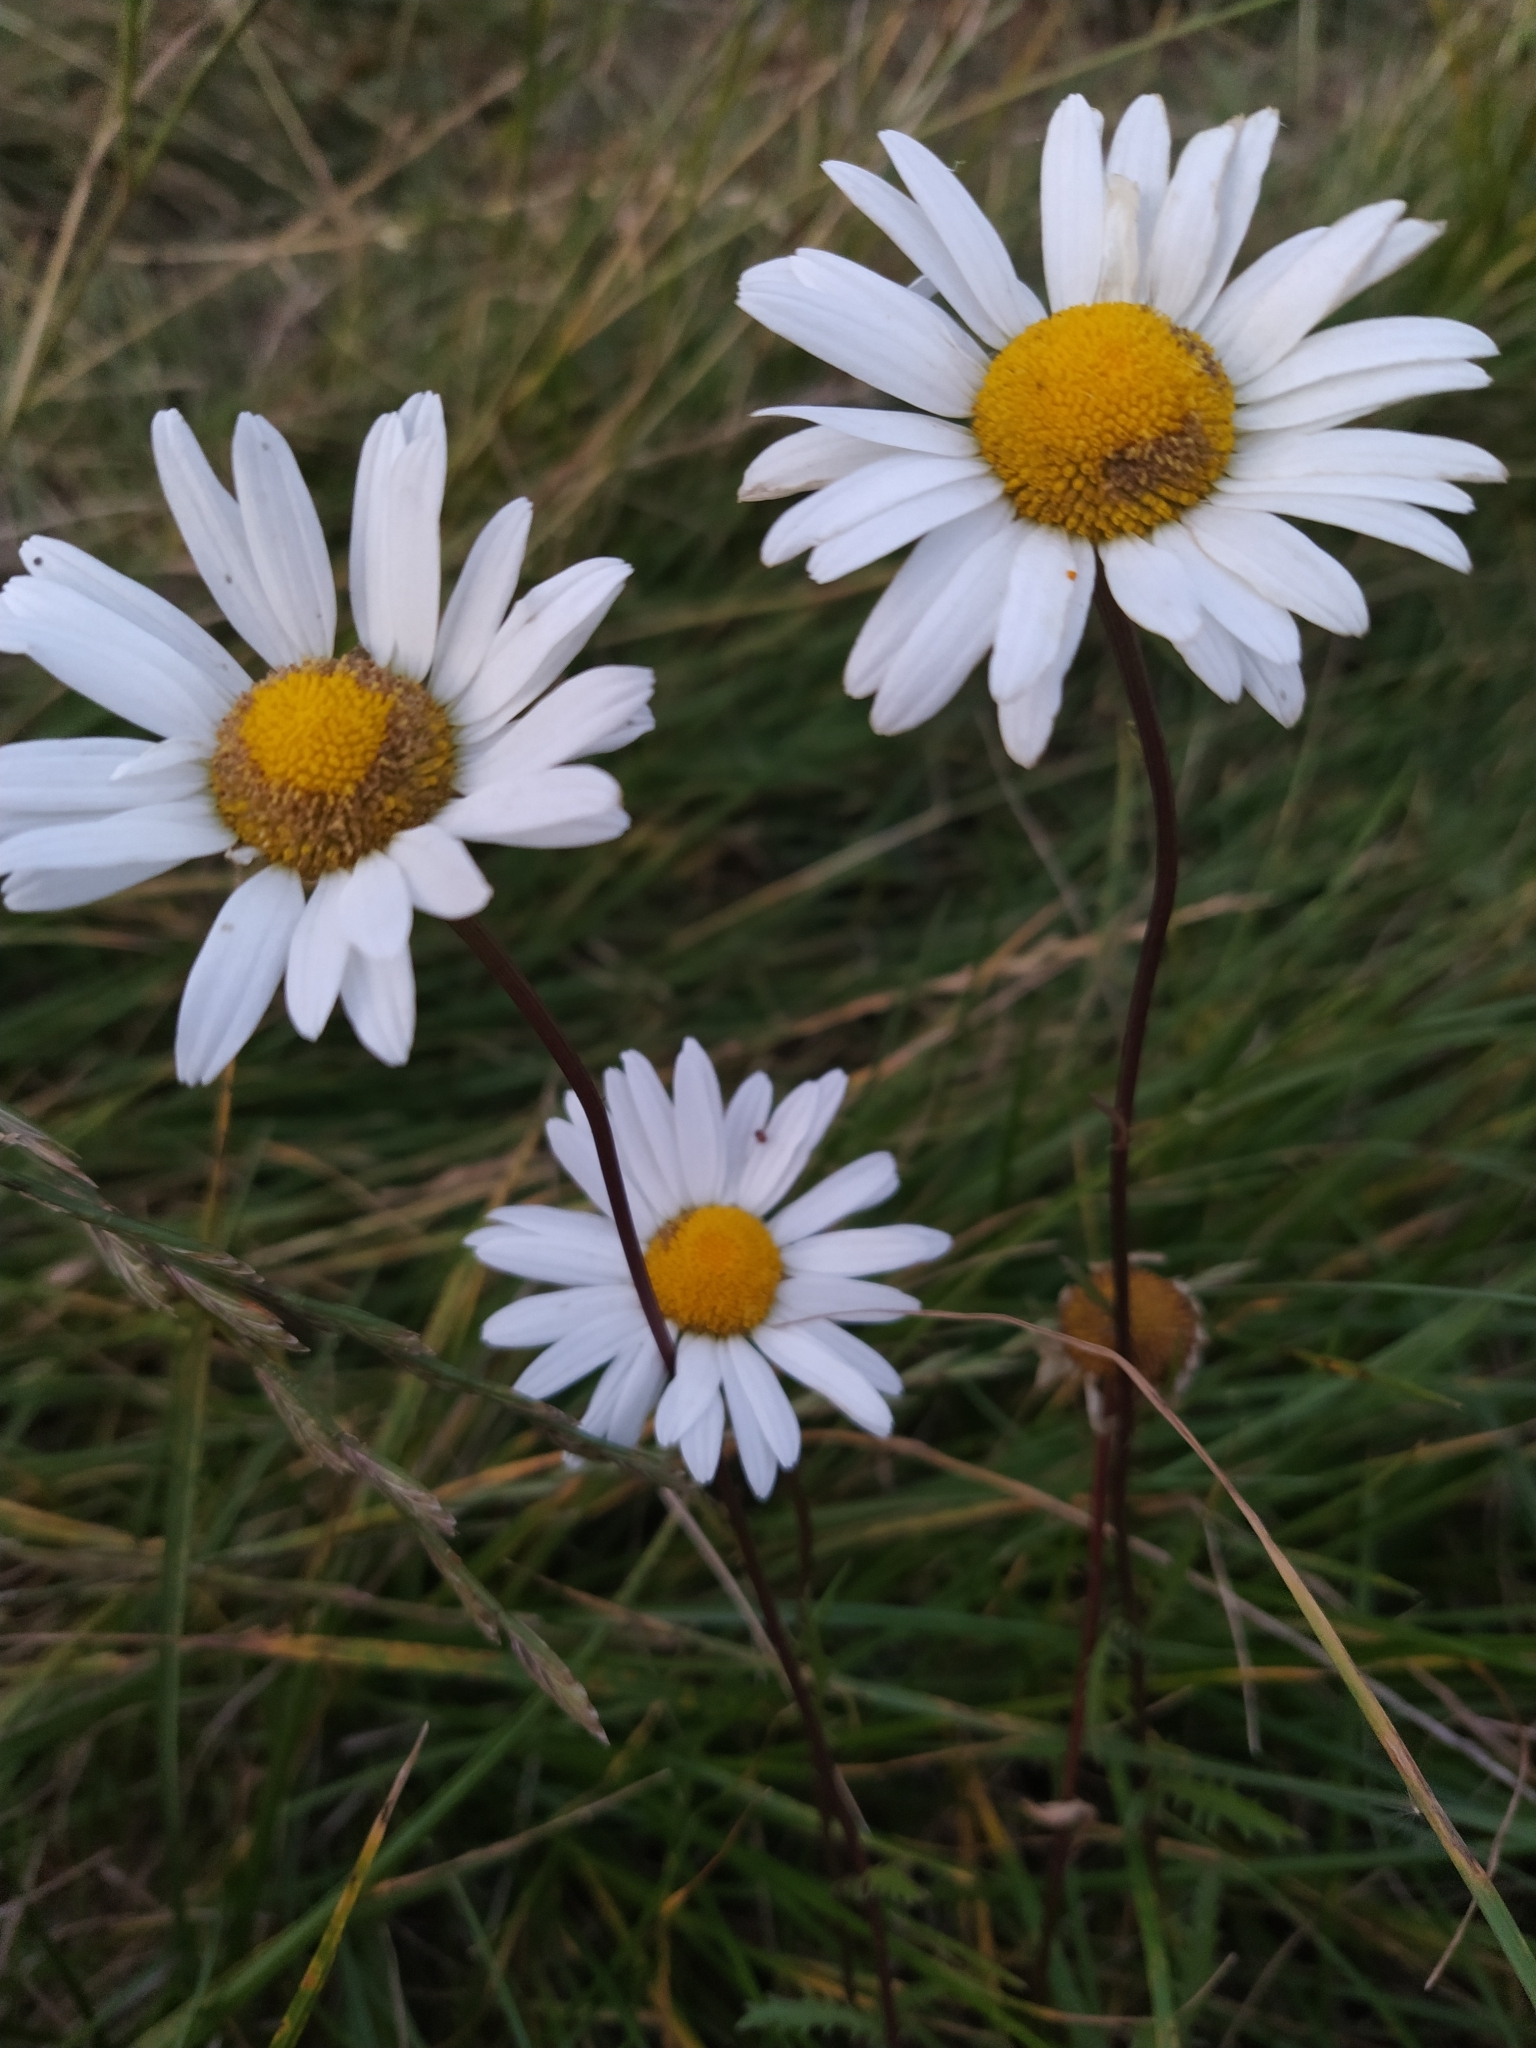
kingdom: Plantae
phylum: Tracheophyta
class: Magnoliopsida
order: Asterales
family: Asteraceae
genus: Leucanthemum
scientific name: Leucanthemum vulgare
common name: Oxeye daisy
